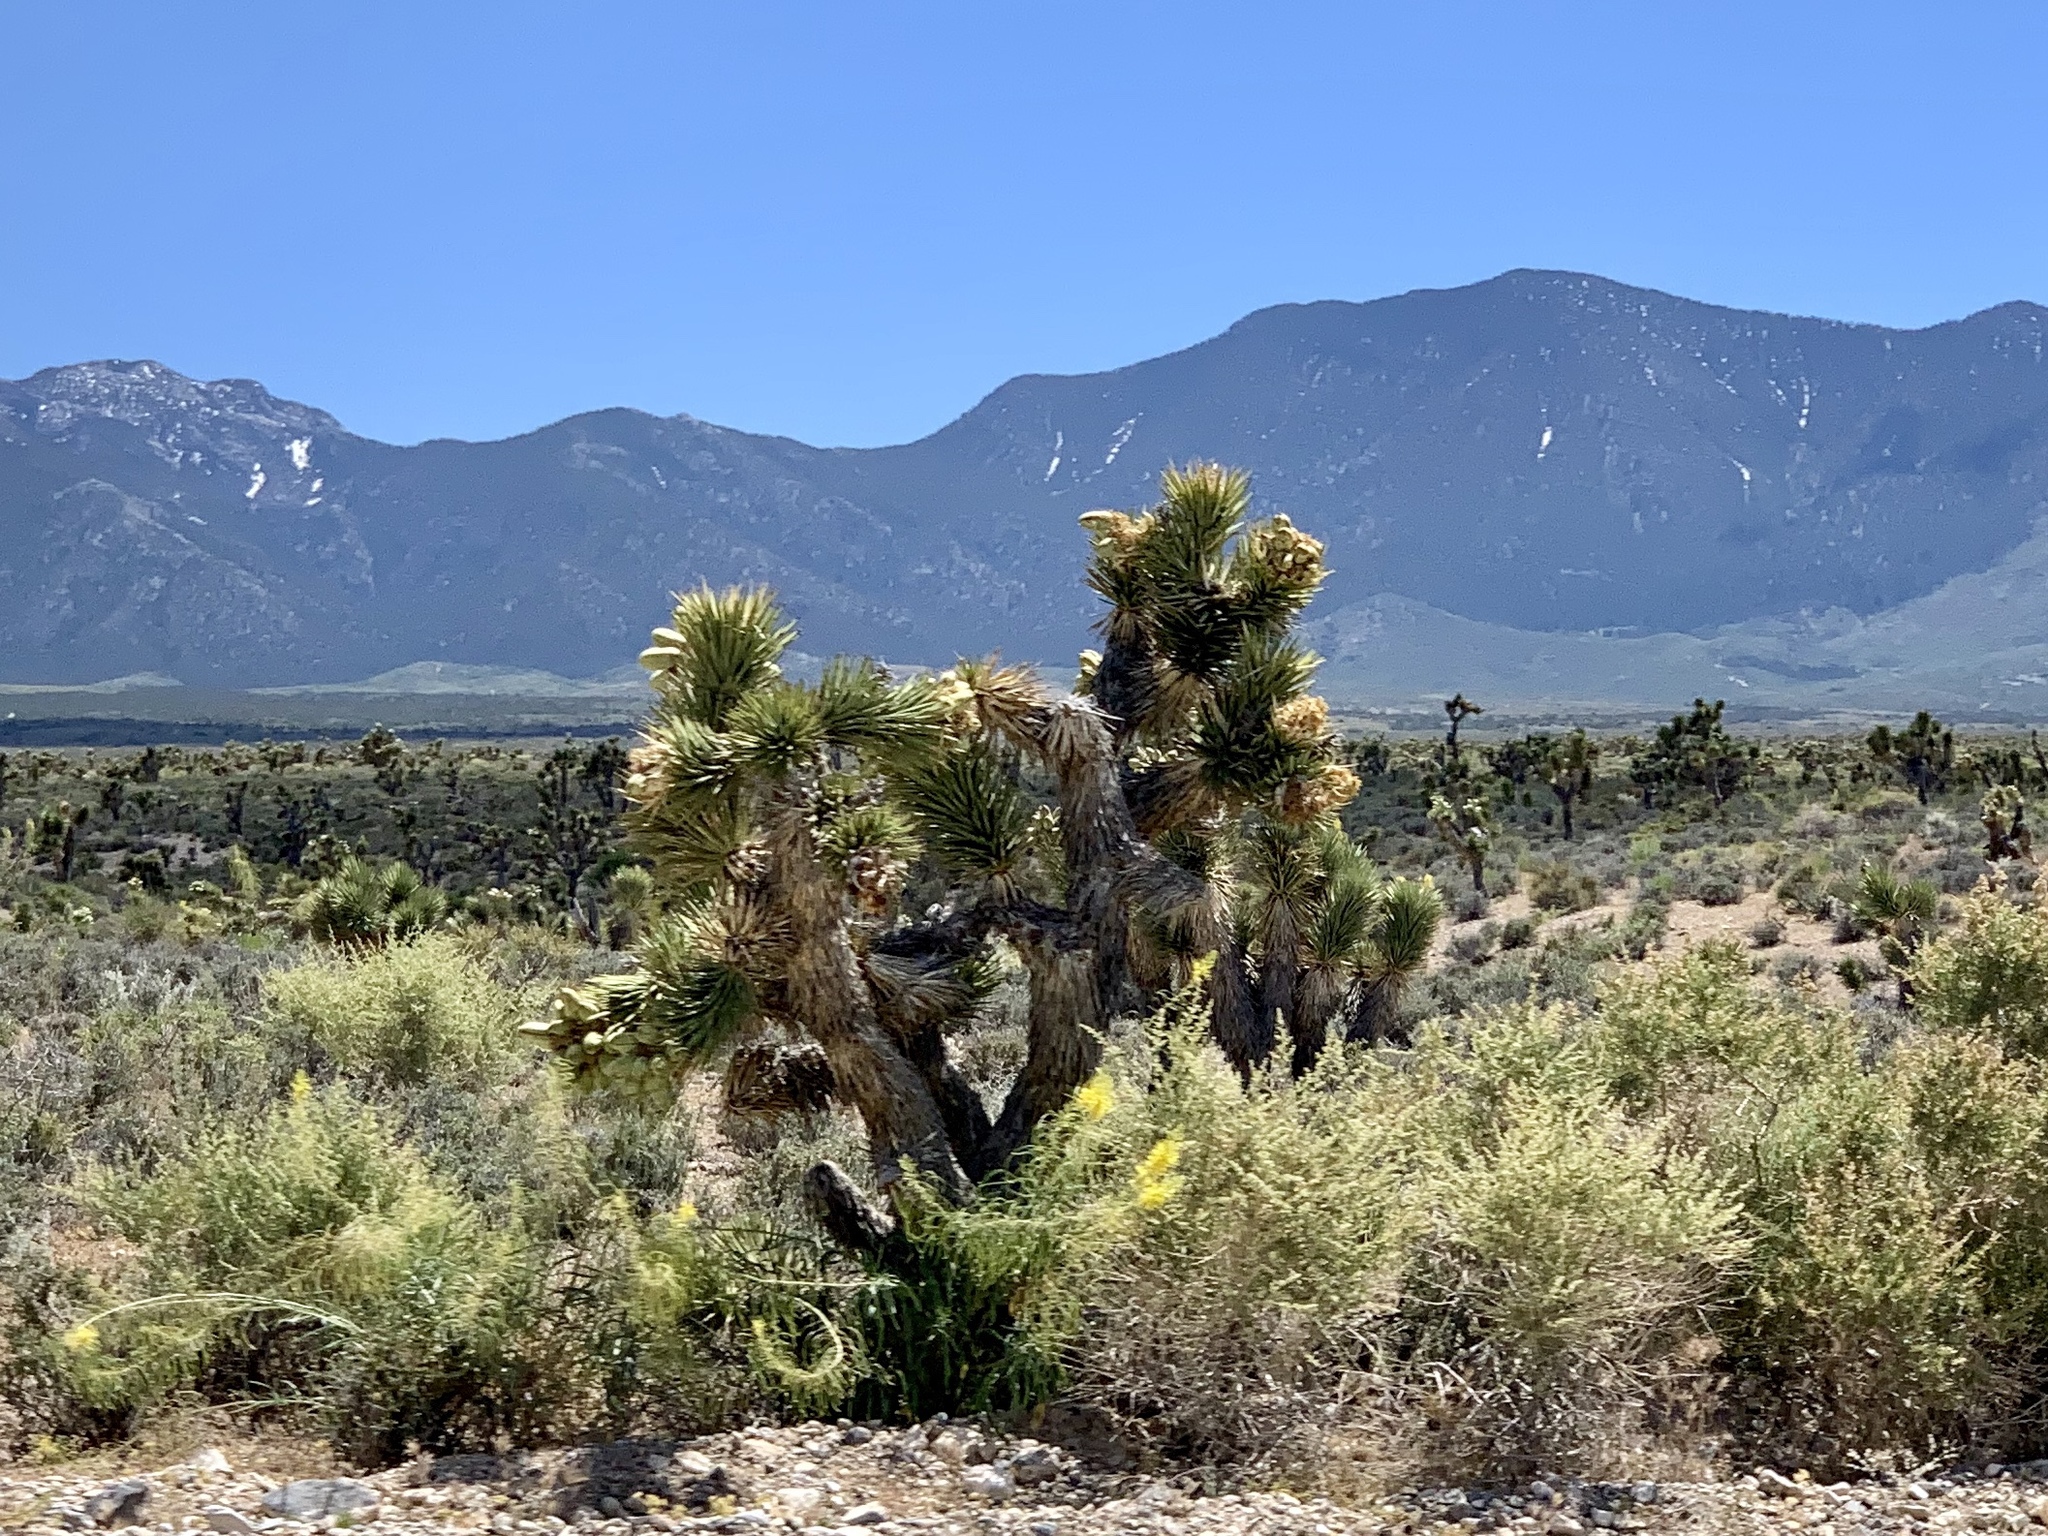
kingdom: Plantae
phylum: Tracheophyta
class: Liliopsida
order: Asparagales
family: Asparagaceae
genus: Yucca
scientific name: Yucca brevifolia
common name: Joshua tree
